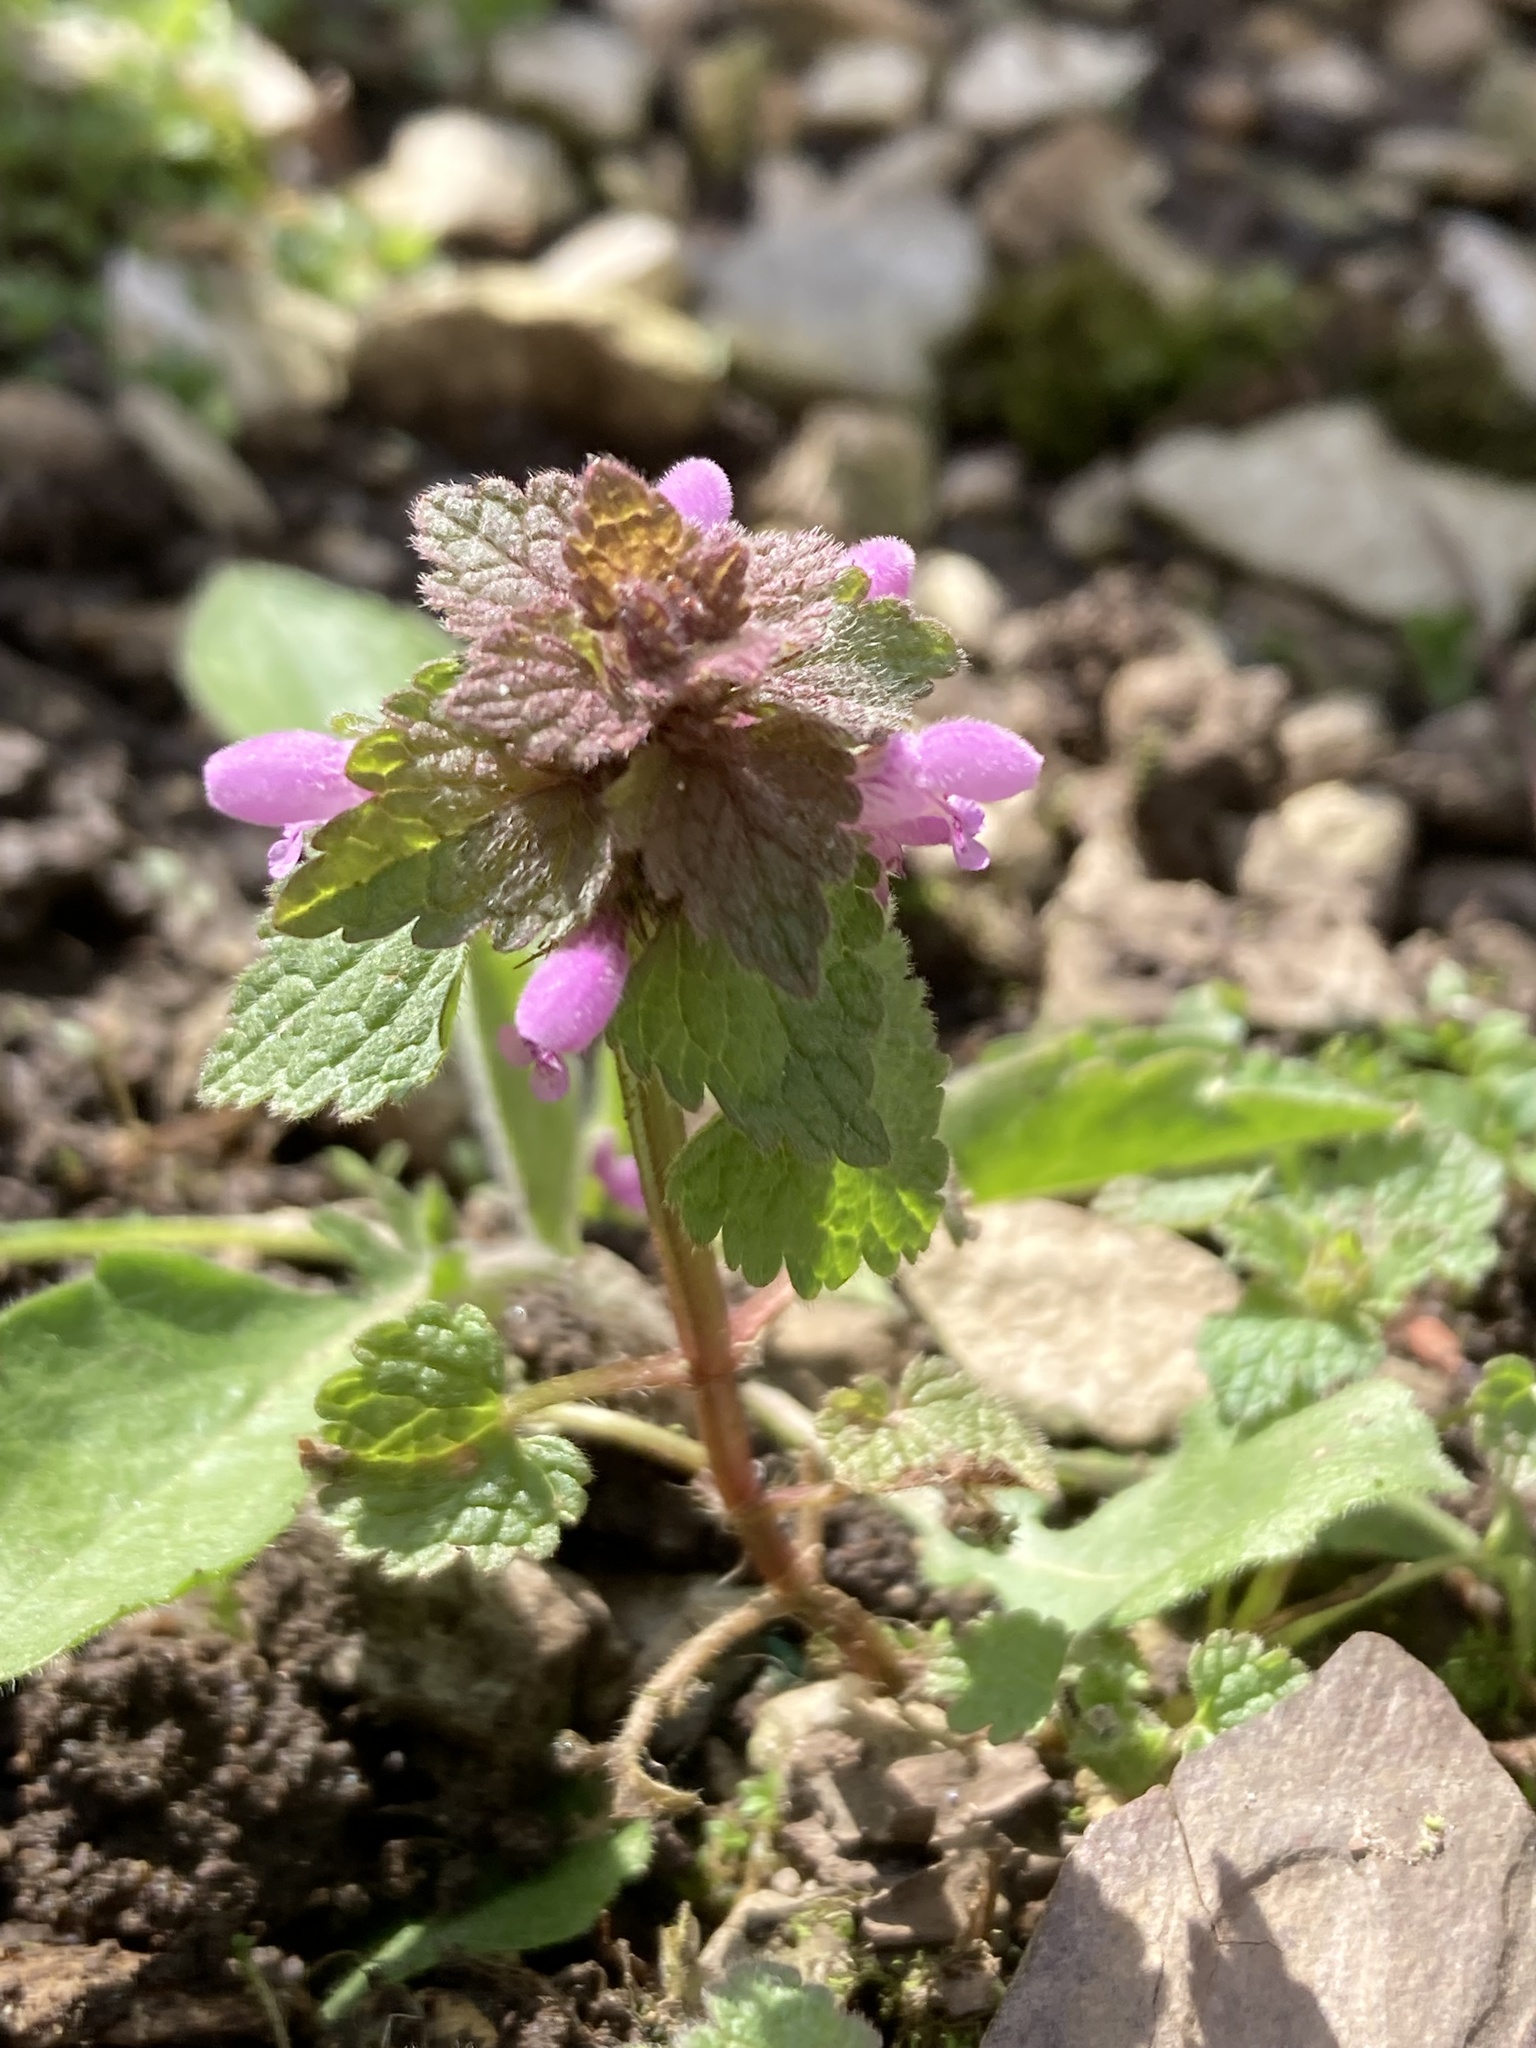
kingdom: Plantae
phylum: Tracheophyta
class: Magnoliopsida
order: Lamiales
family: Lamiaceae
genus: Lamium
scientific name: Lamium purpureum
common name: Red dead-nettle
